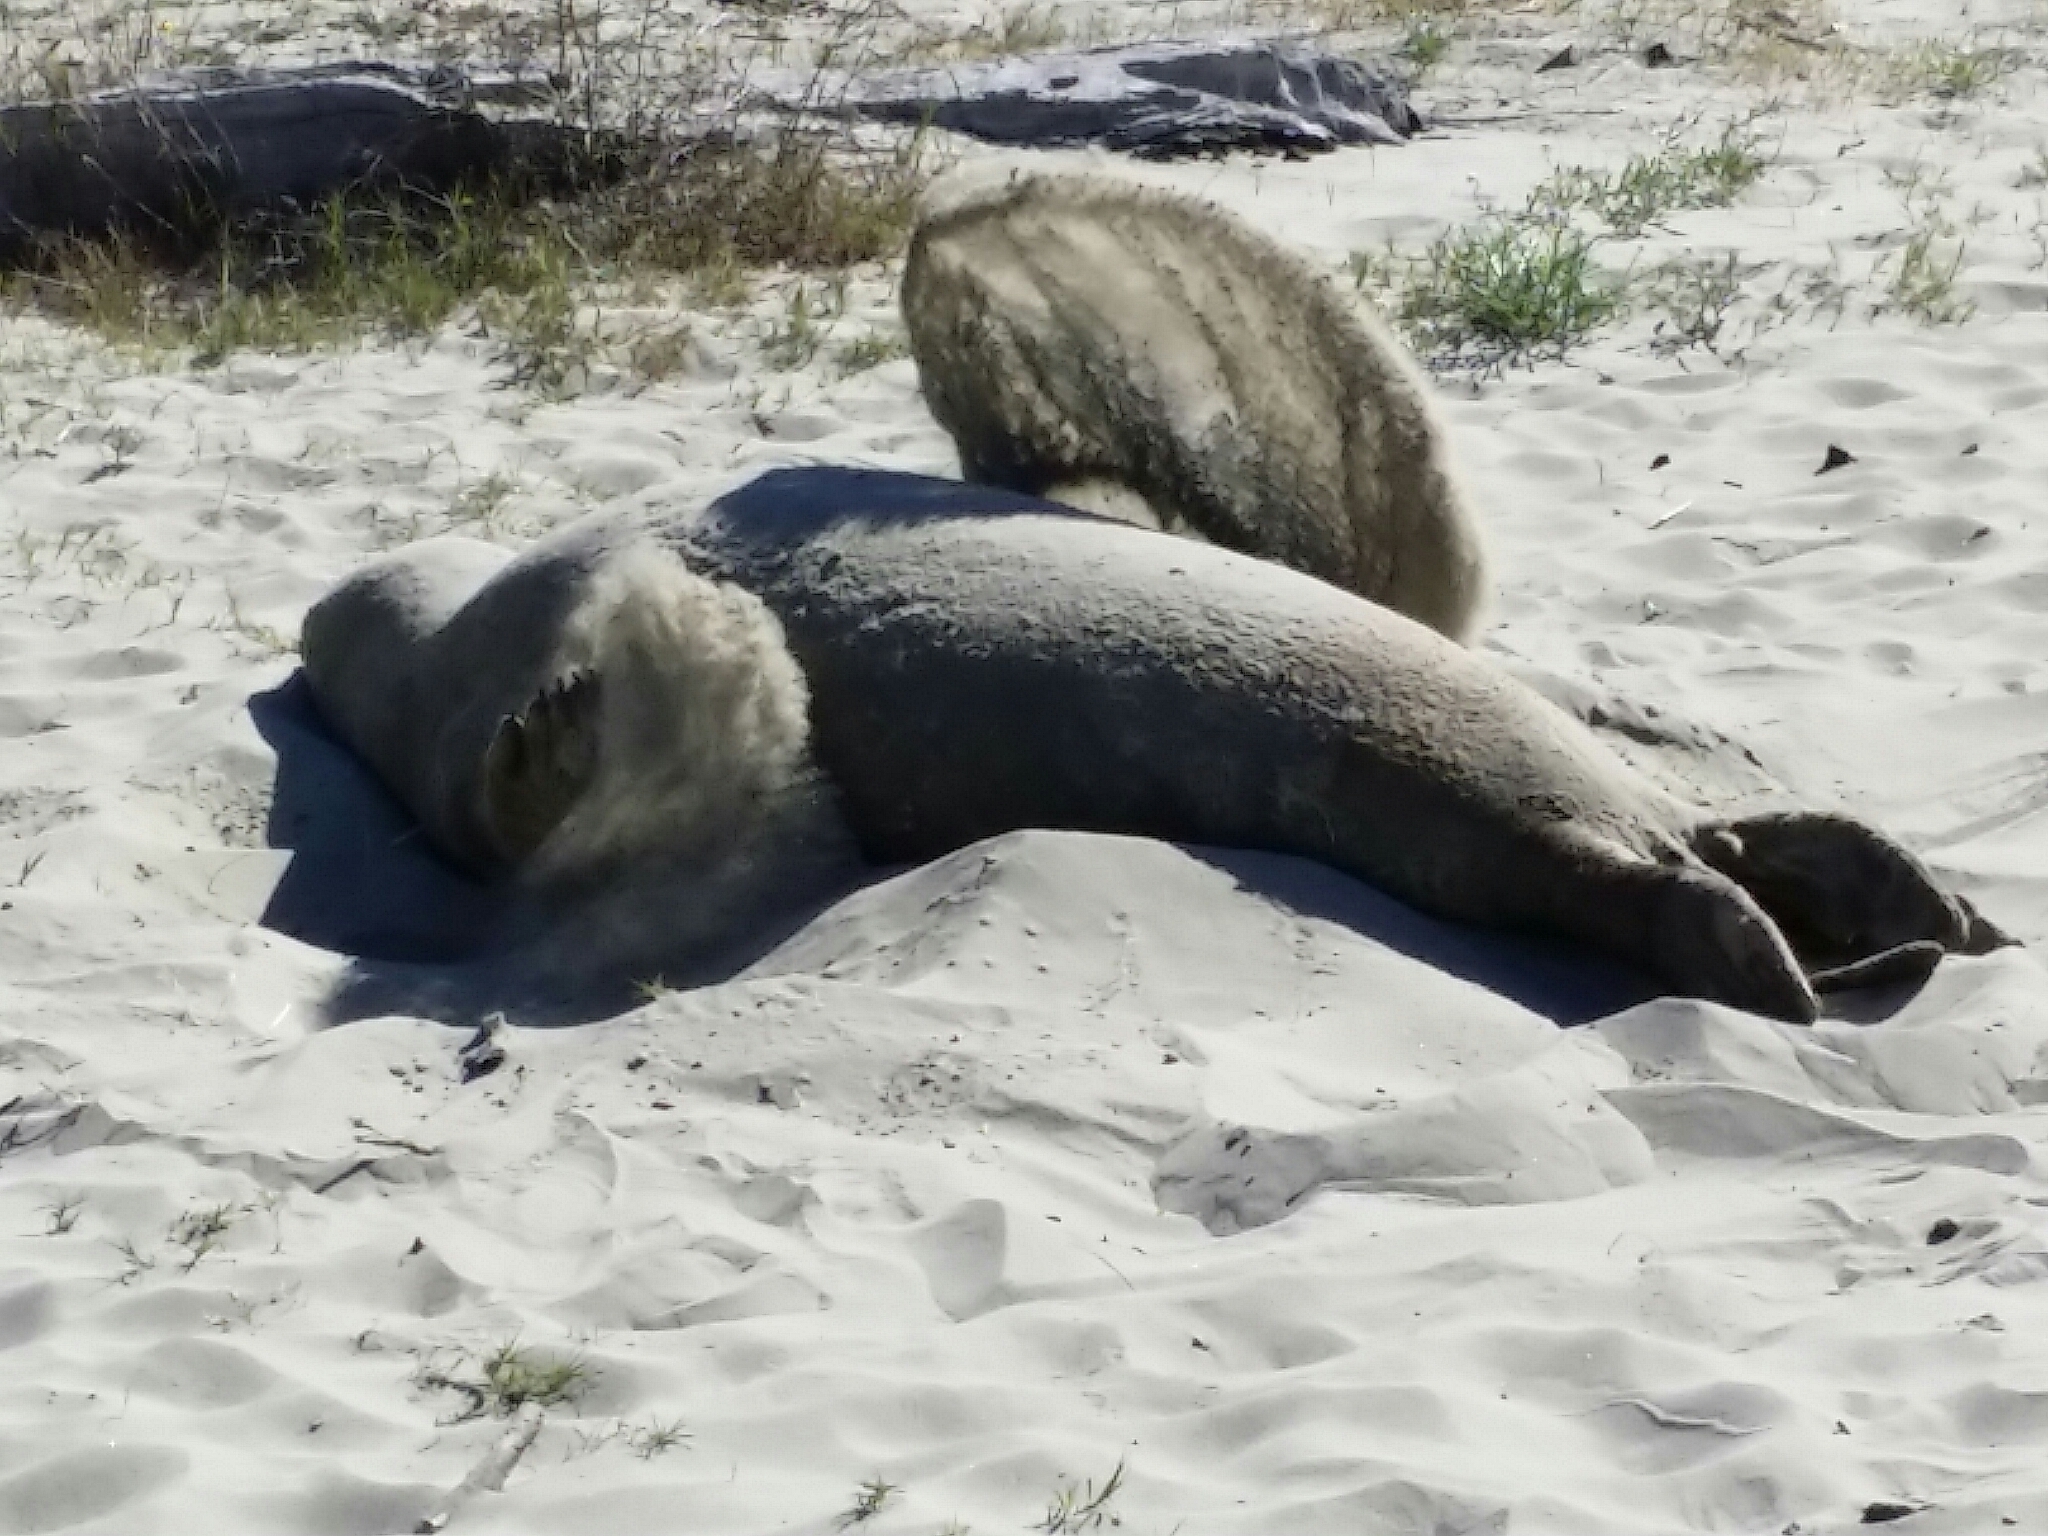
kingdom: Animalia
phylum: Chordata
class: Mammalia
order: Carnivora
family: Phocidae
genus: Mirounga
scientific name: Mirounga angustirostris
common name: Northern elephant seal
